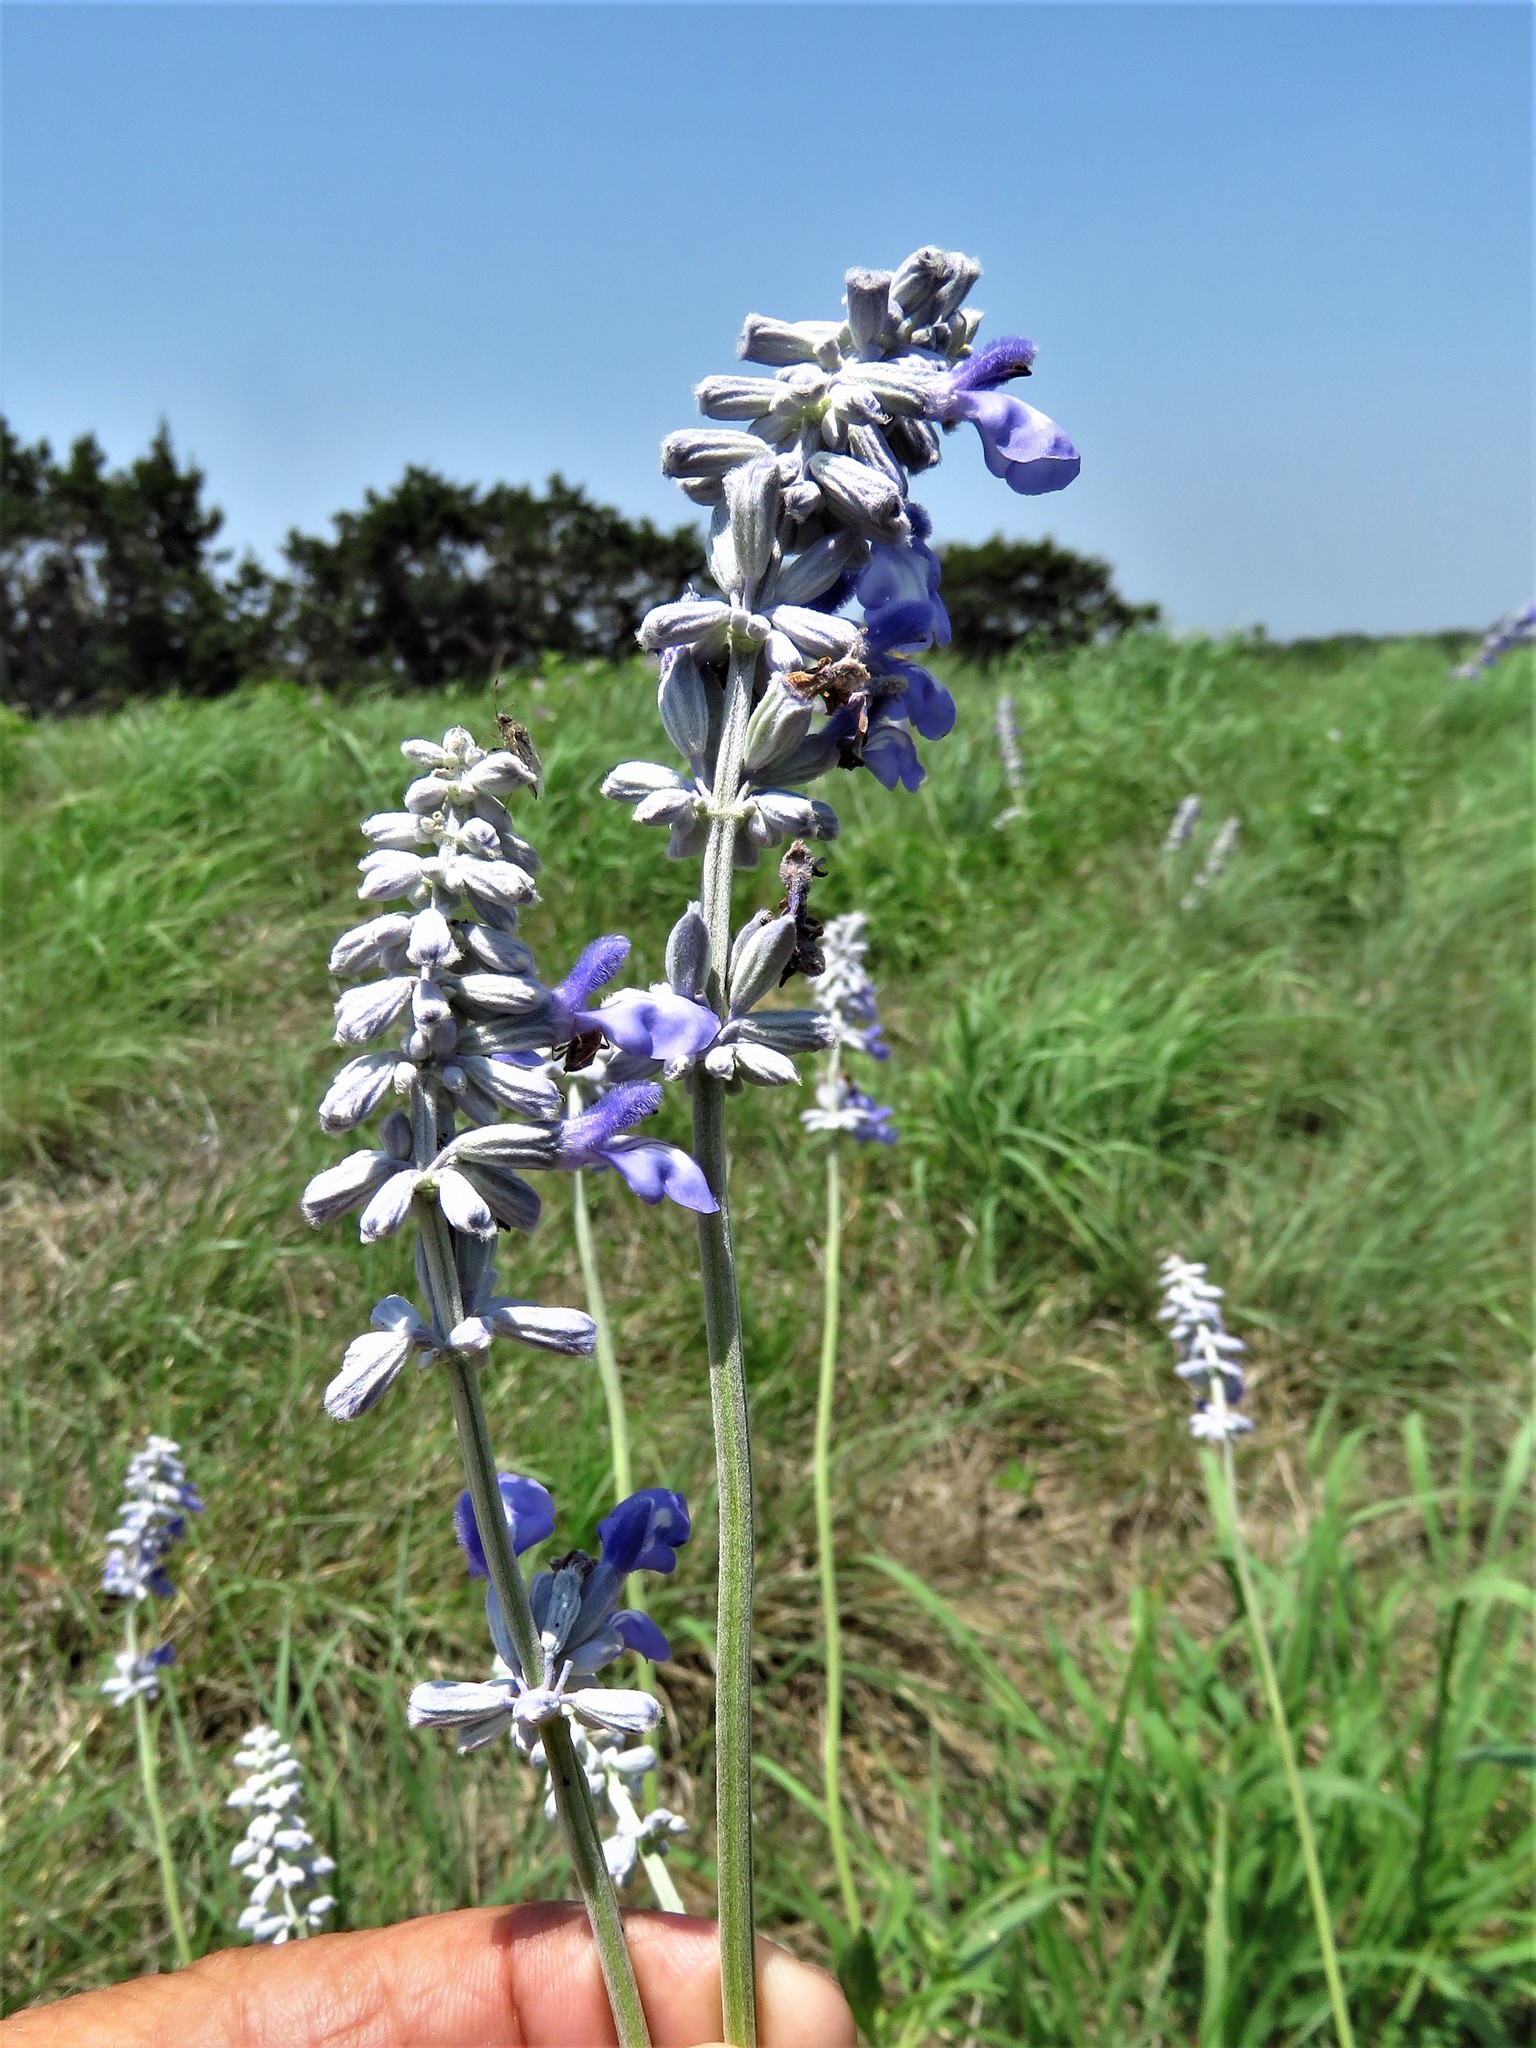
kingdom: Plantae
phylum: Tracheophyta
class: Magnoliopsida
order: Lamiales
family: Lamiaceae
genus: Salvia
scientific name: Salvia farinacea
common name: Mealy sage
